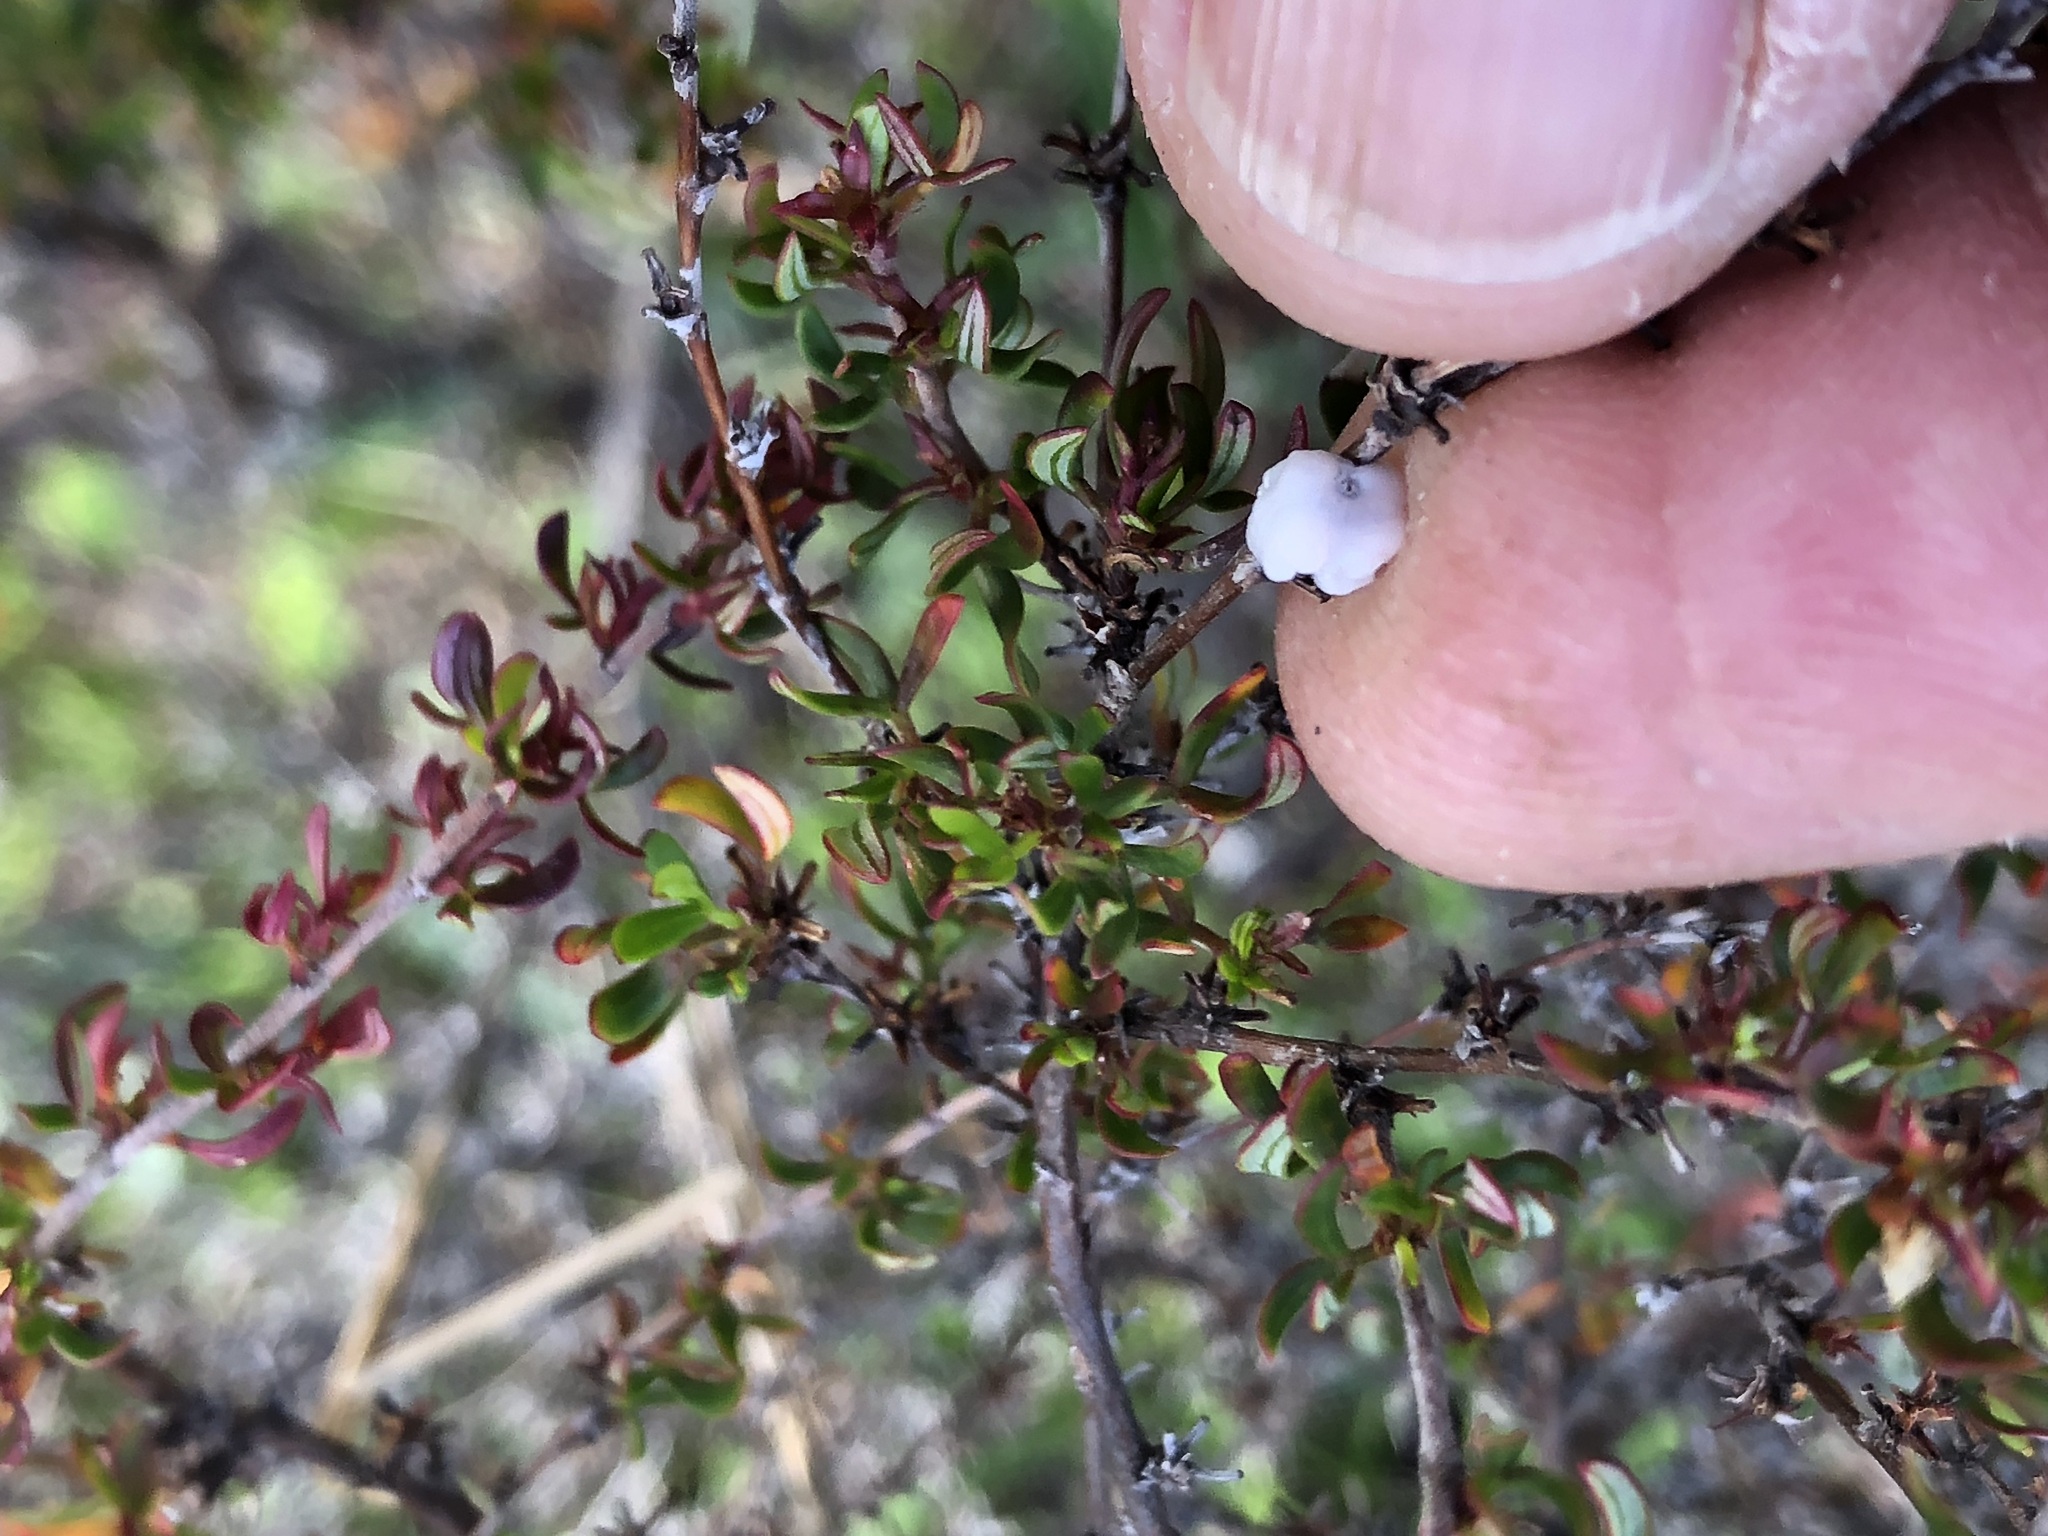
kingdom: Plantae
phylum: Tracheophyta
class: Magnoliopsida
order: Rosales
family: Rosaceae
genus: Cliffortia
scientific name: Cliffortia falcata
